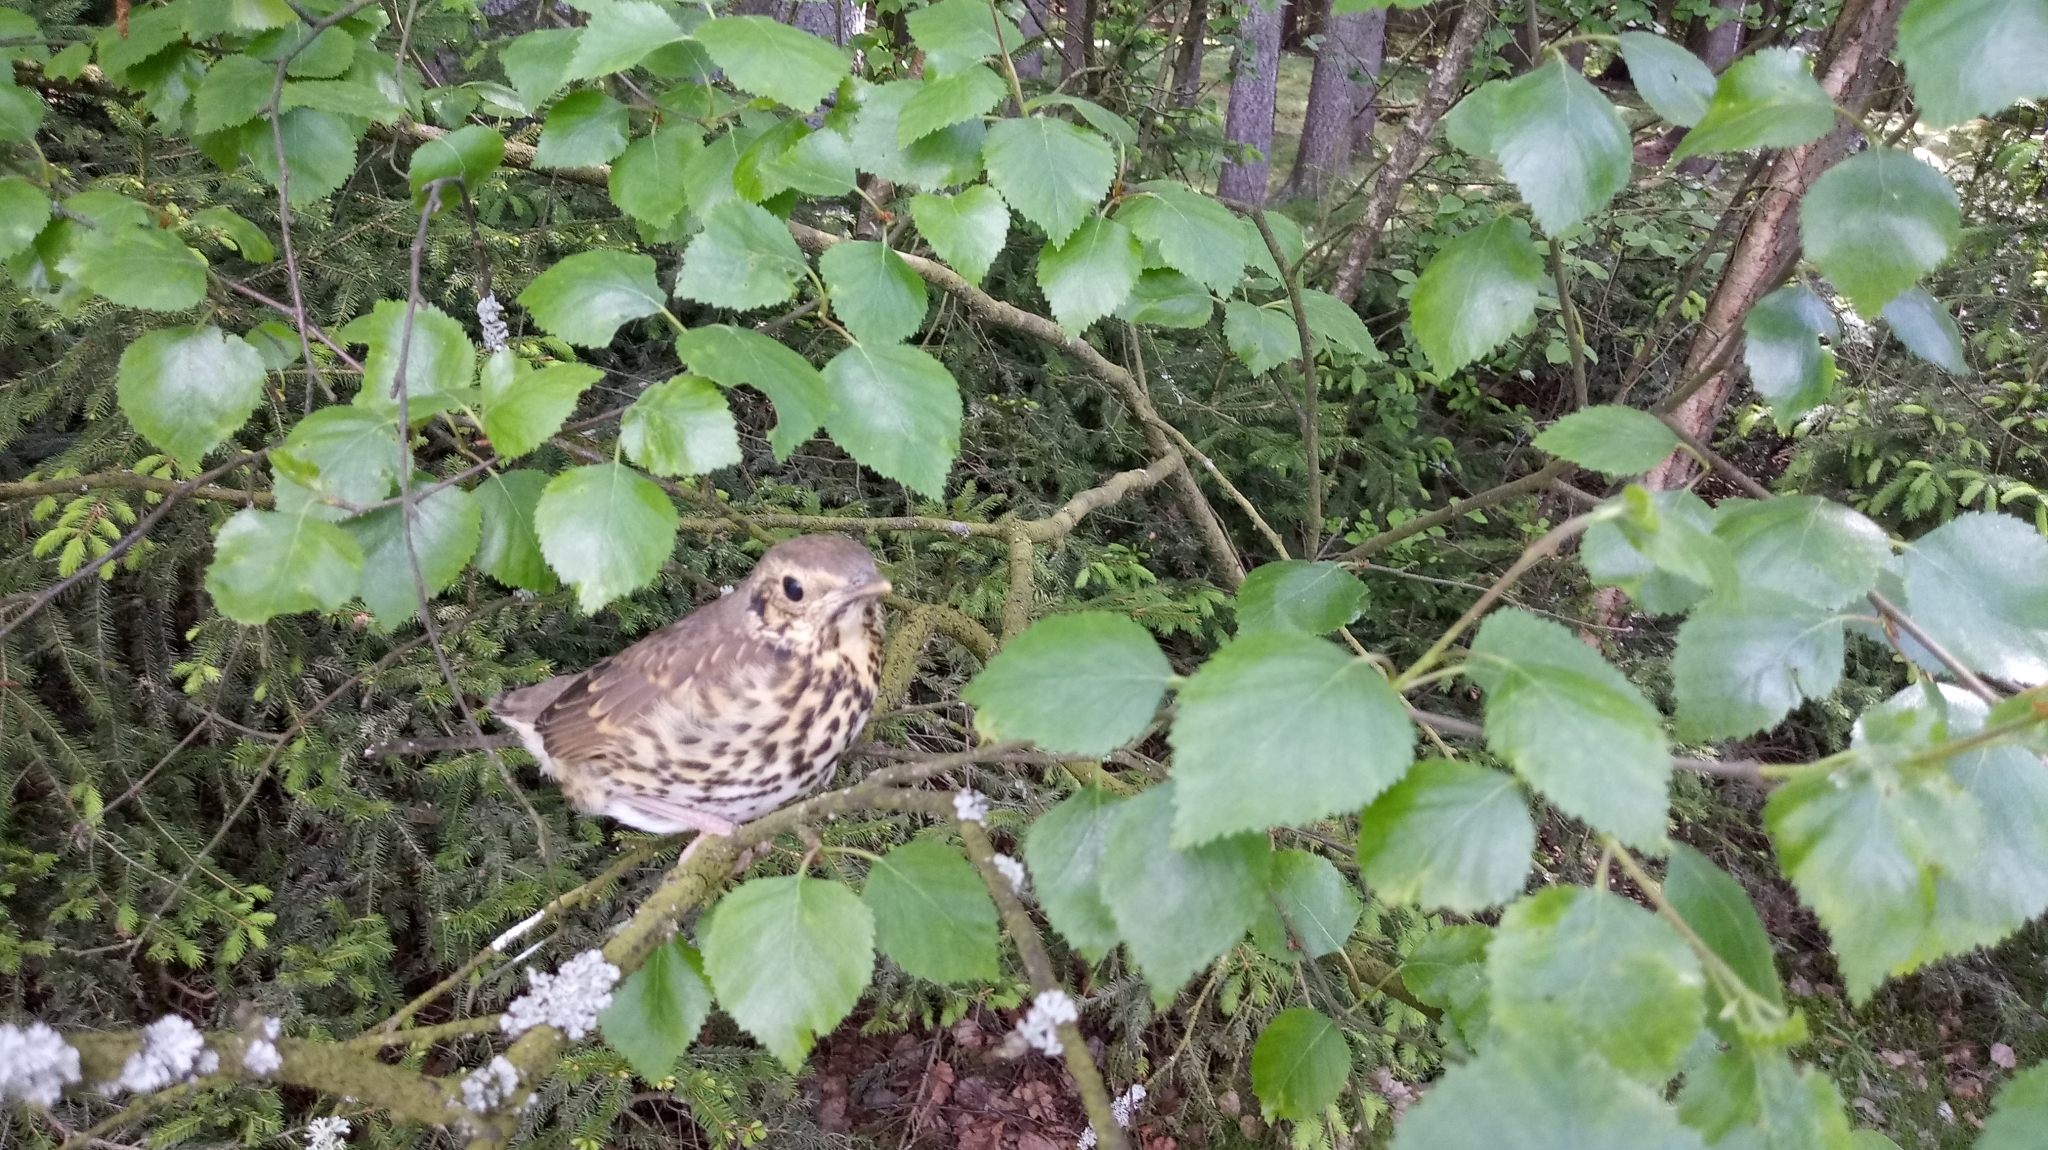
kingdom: Animalia
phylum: Chordata
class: Aves
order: Passeriformes
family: Turdidae
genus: Turdus
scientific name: Turdus philomelos
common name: Song thrush
